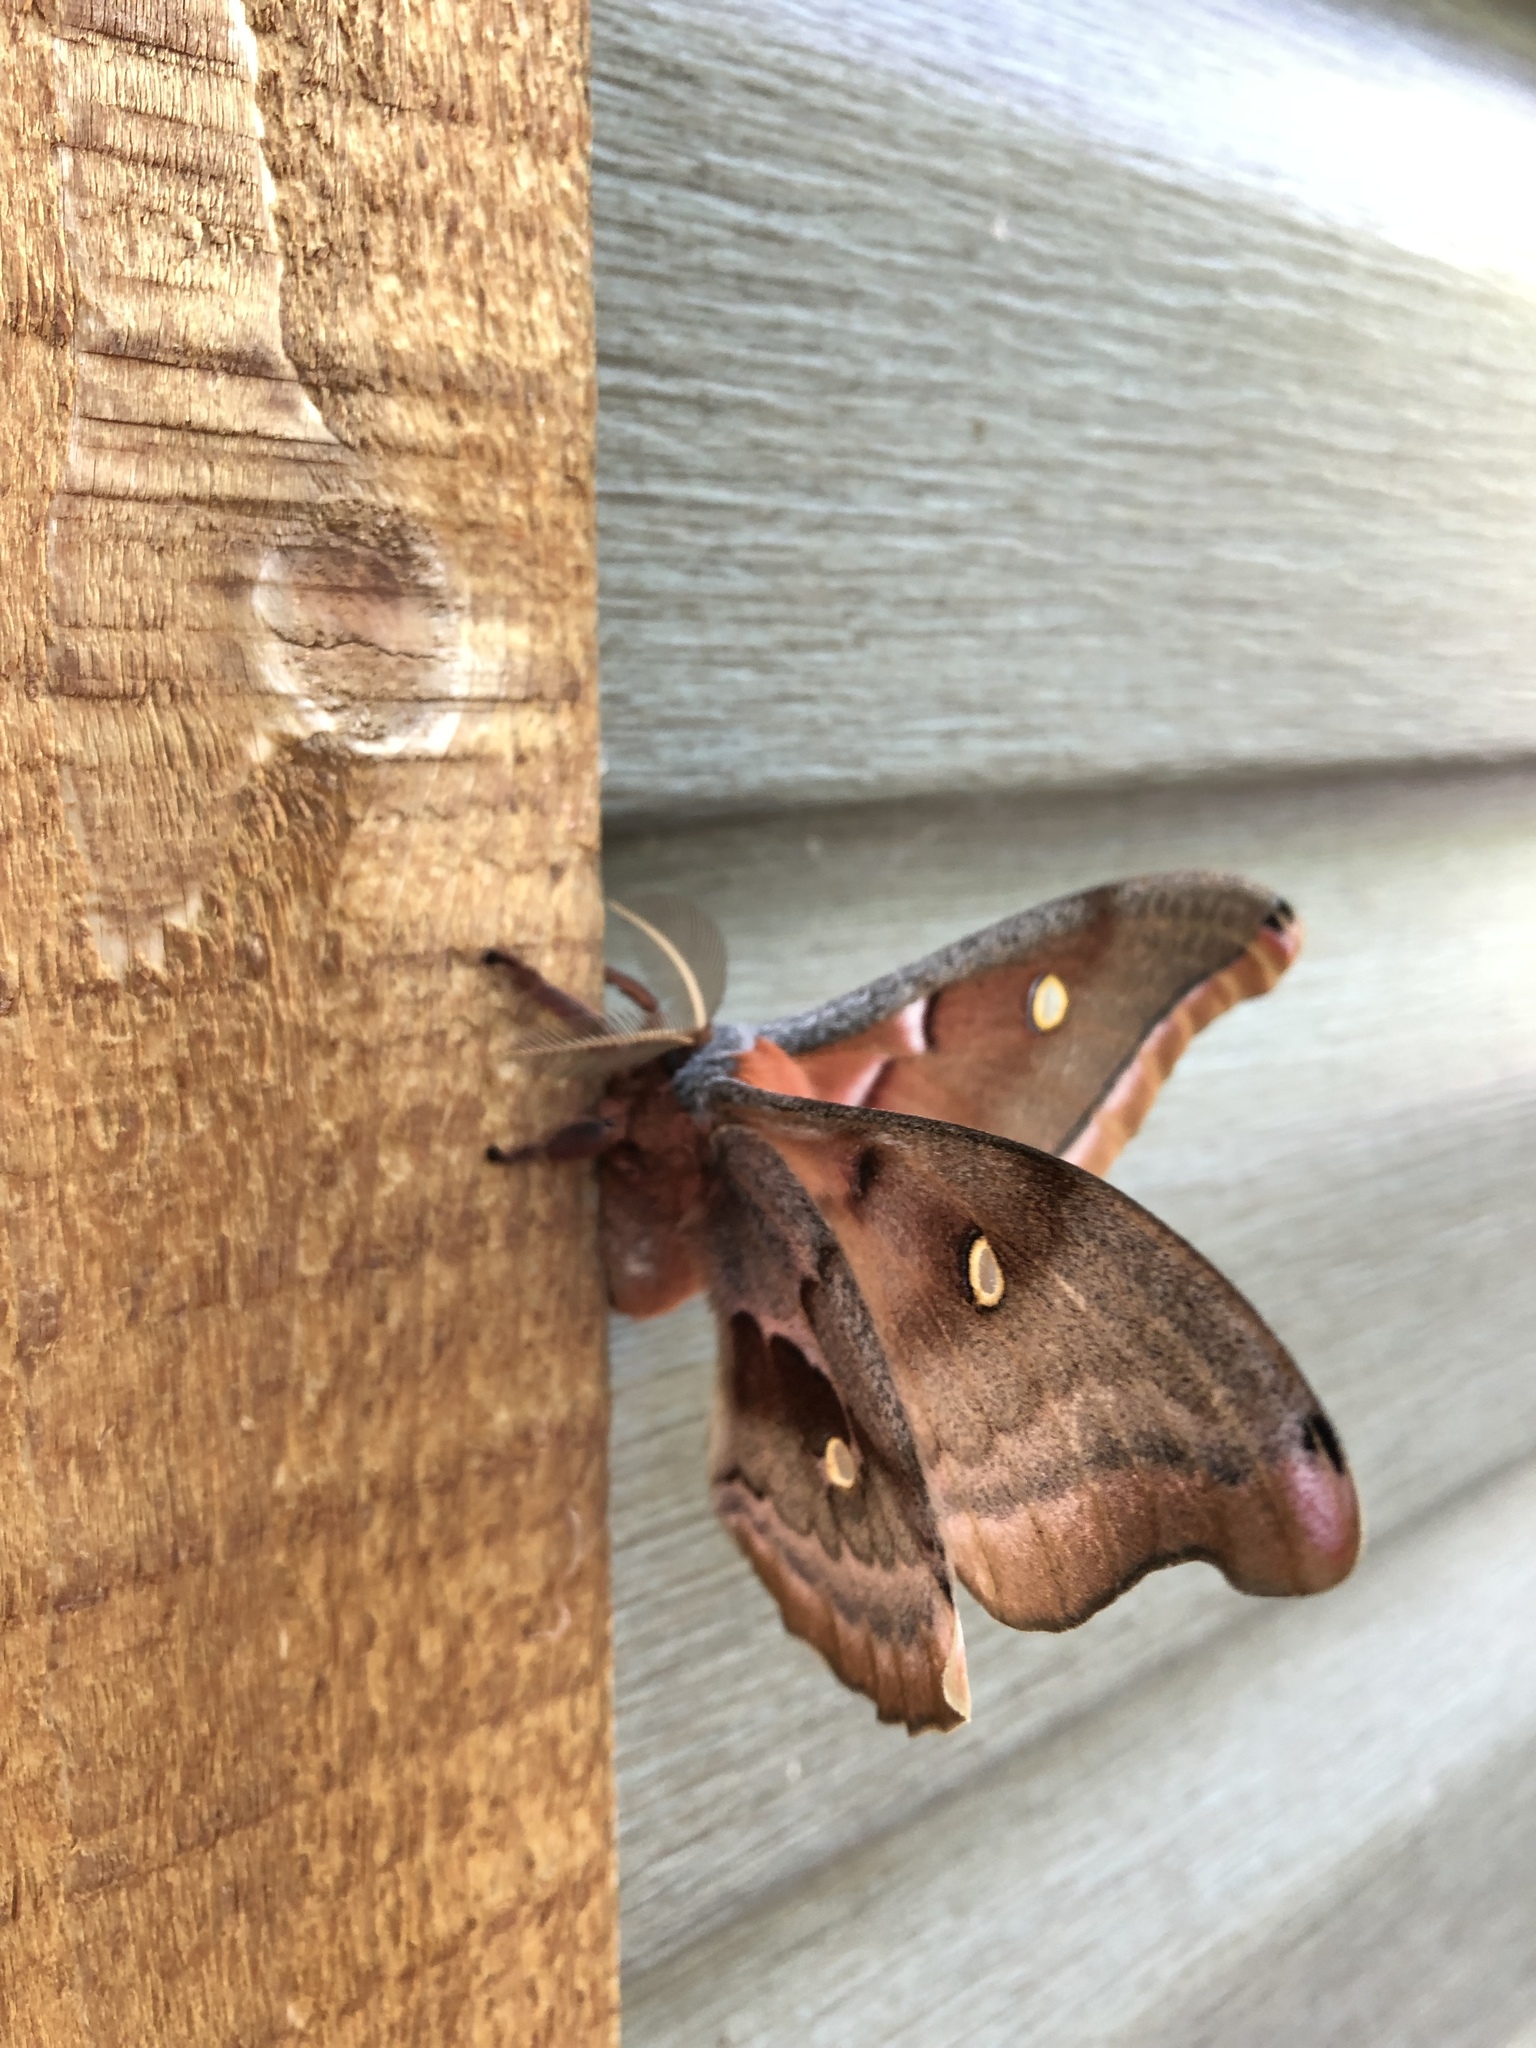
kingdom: Animalia
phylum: Arthropoda
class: Insecta
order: Lepidoptera
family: Saturniidae
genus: Antheraea
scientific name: Antheraea polyphemus
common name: Polyphemus moth
